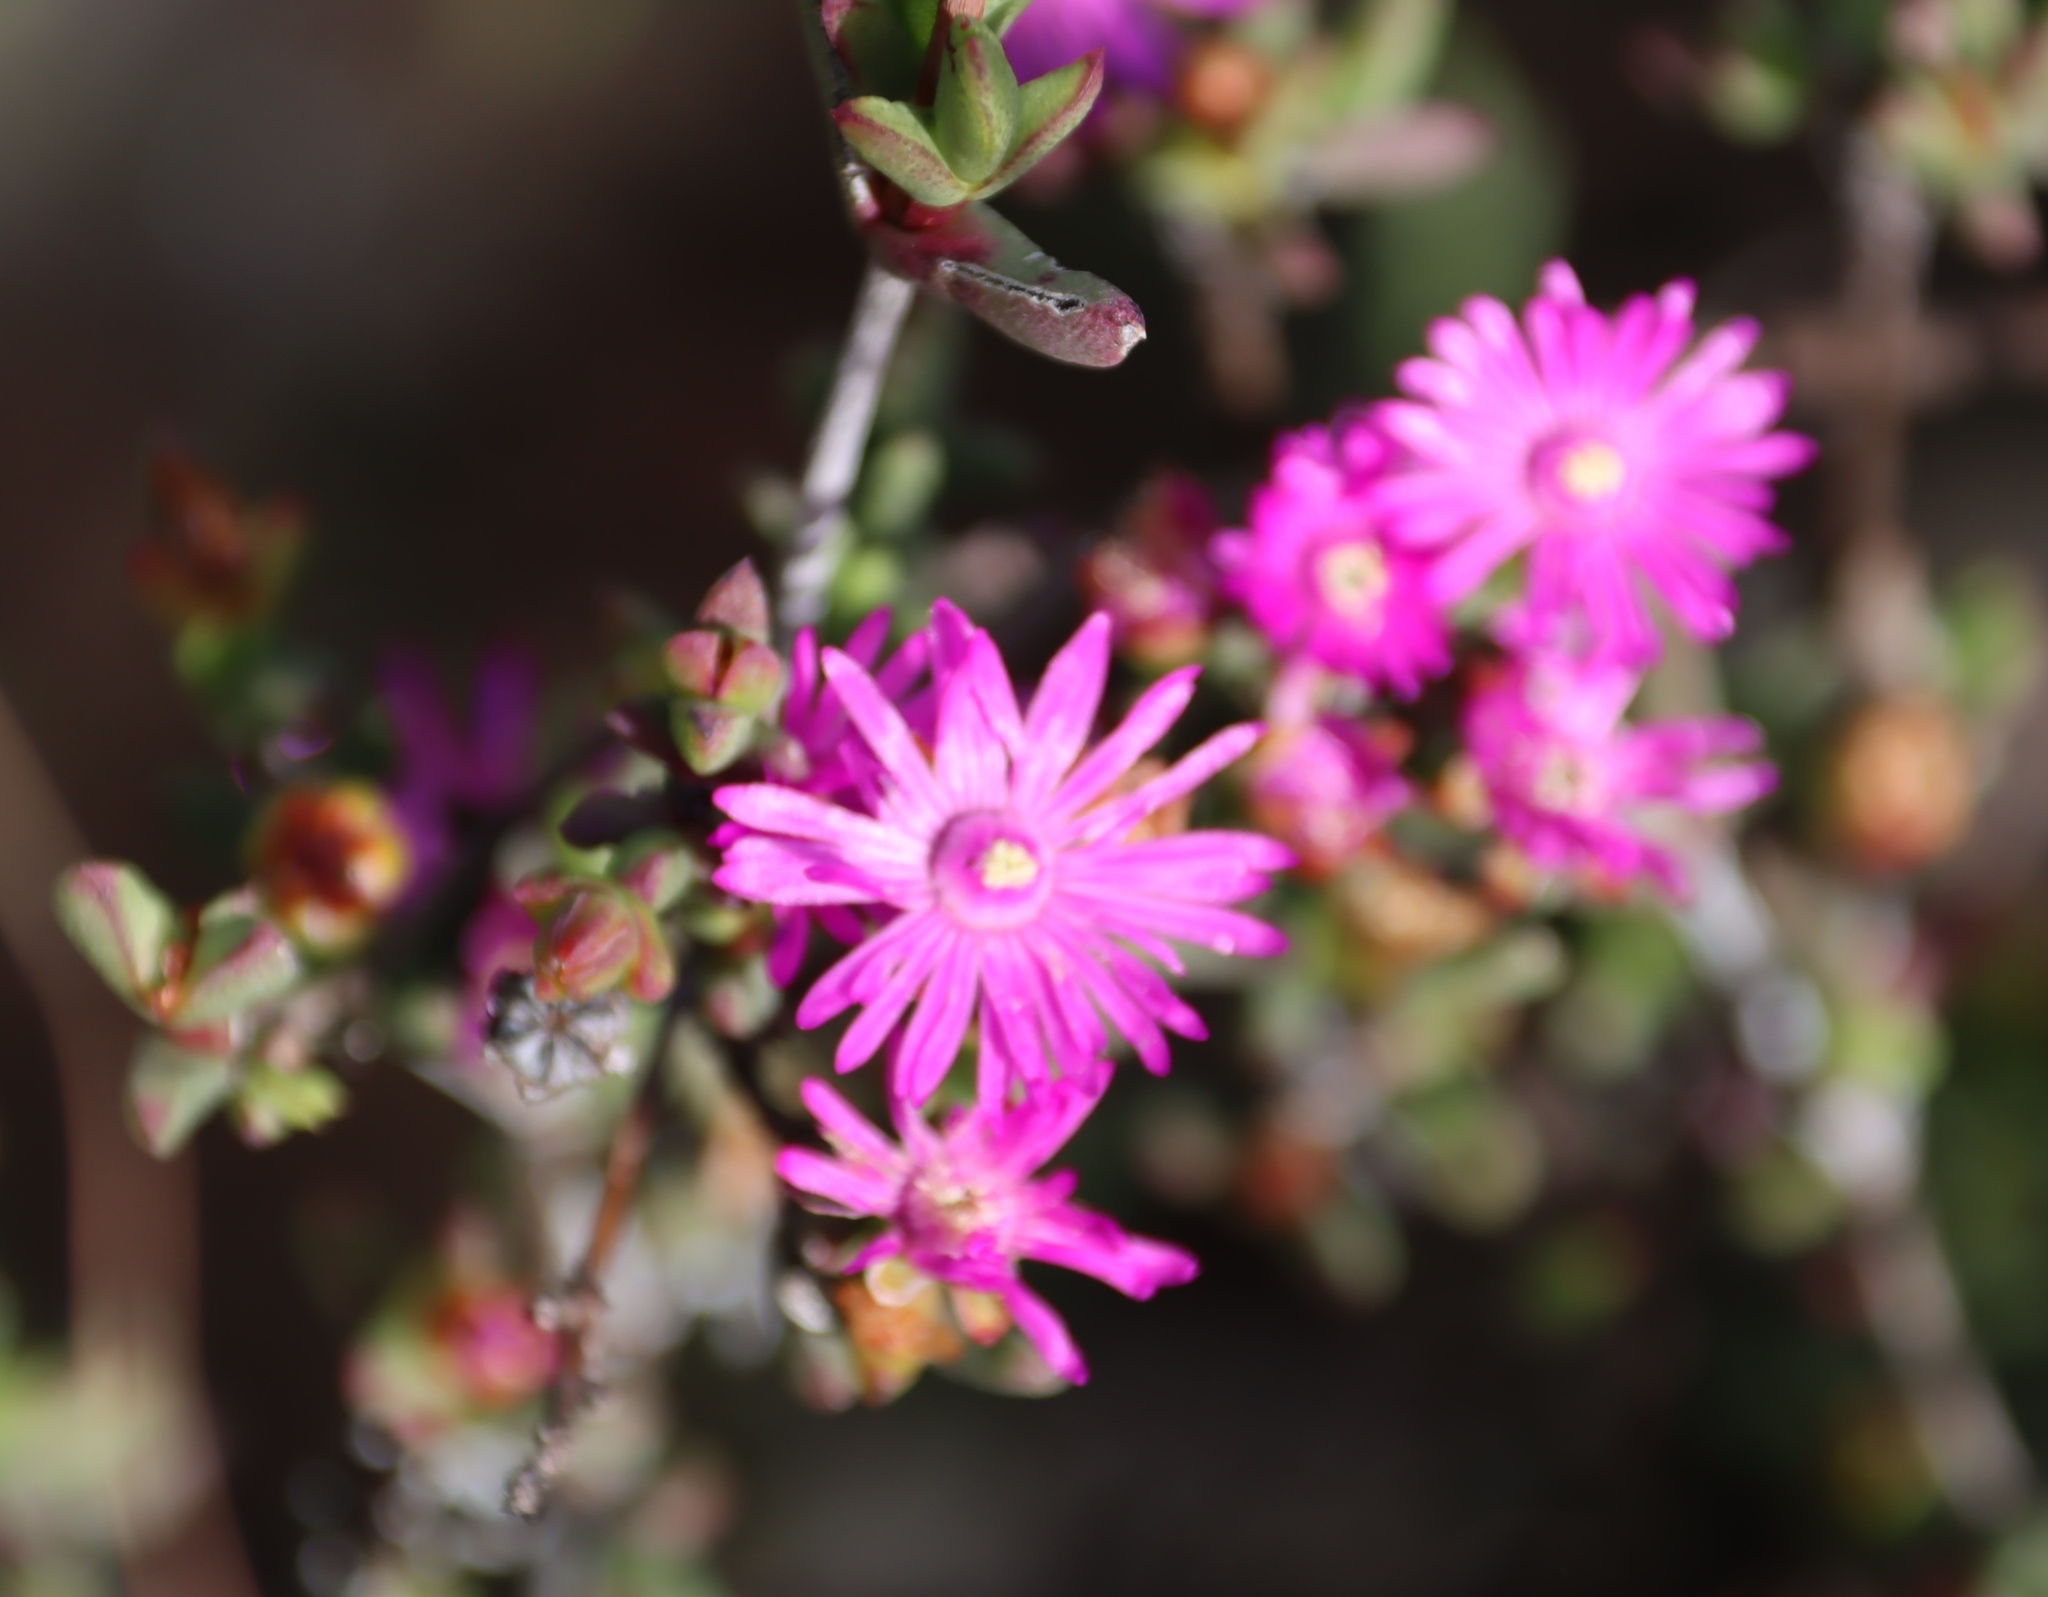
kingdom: Plantae
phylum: Tracheophyta
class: Magnoliopsida
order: Caryophyllales
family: Aizoaceae
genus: Esterhuysenia
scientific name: Esterhuysenia knysnana
